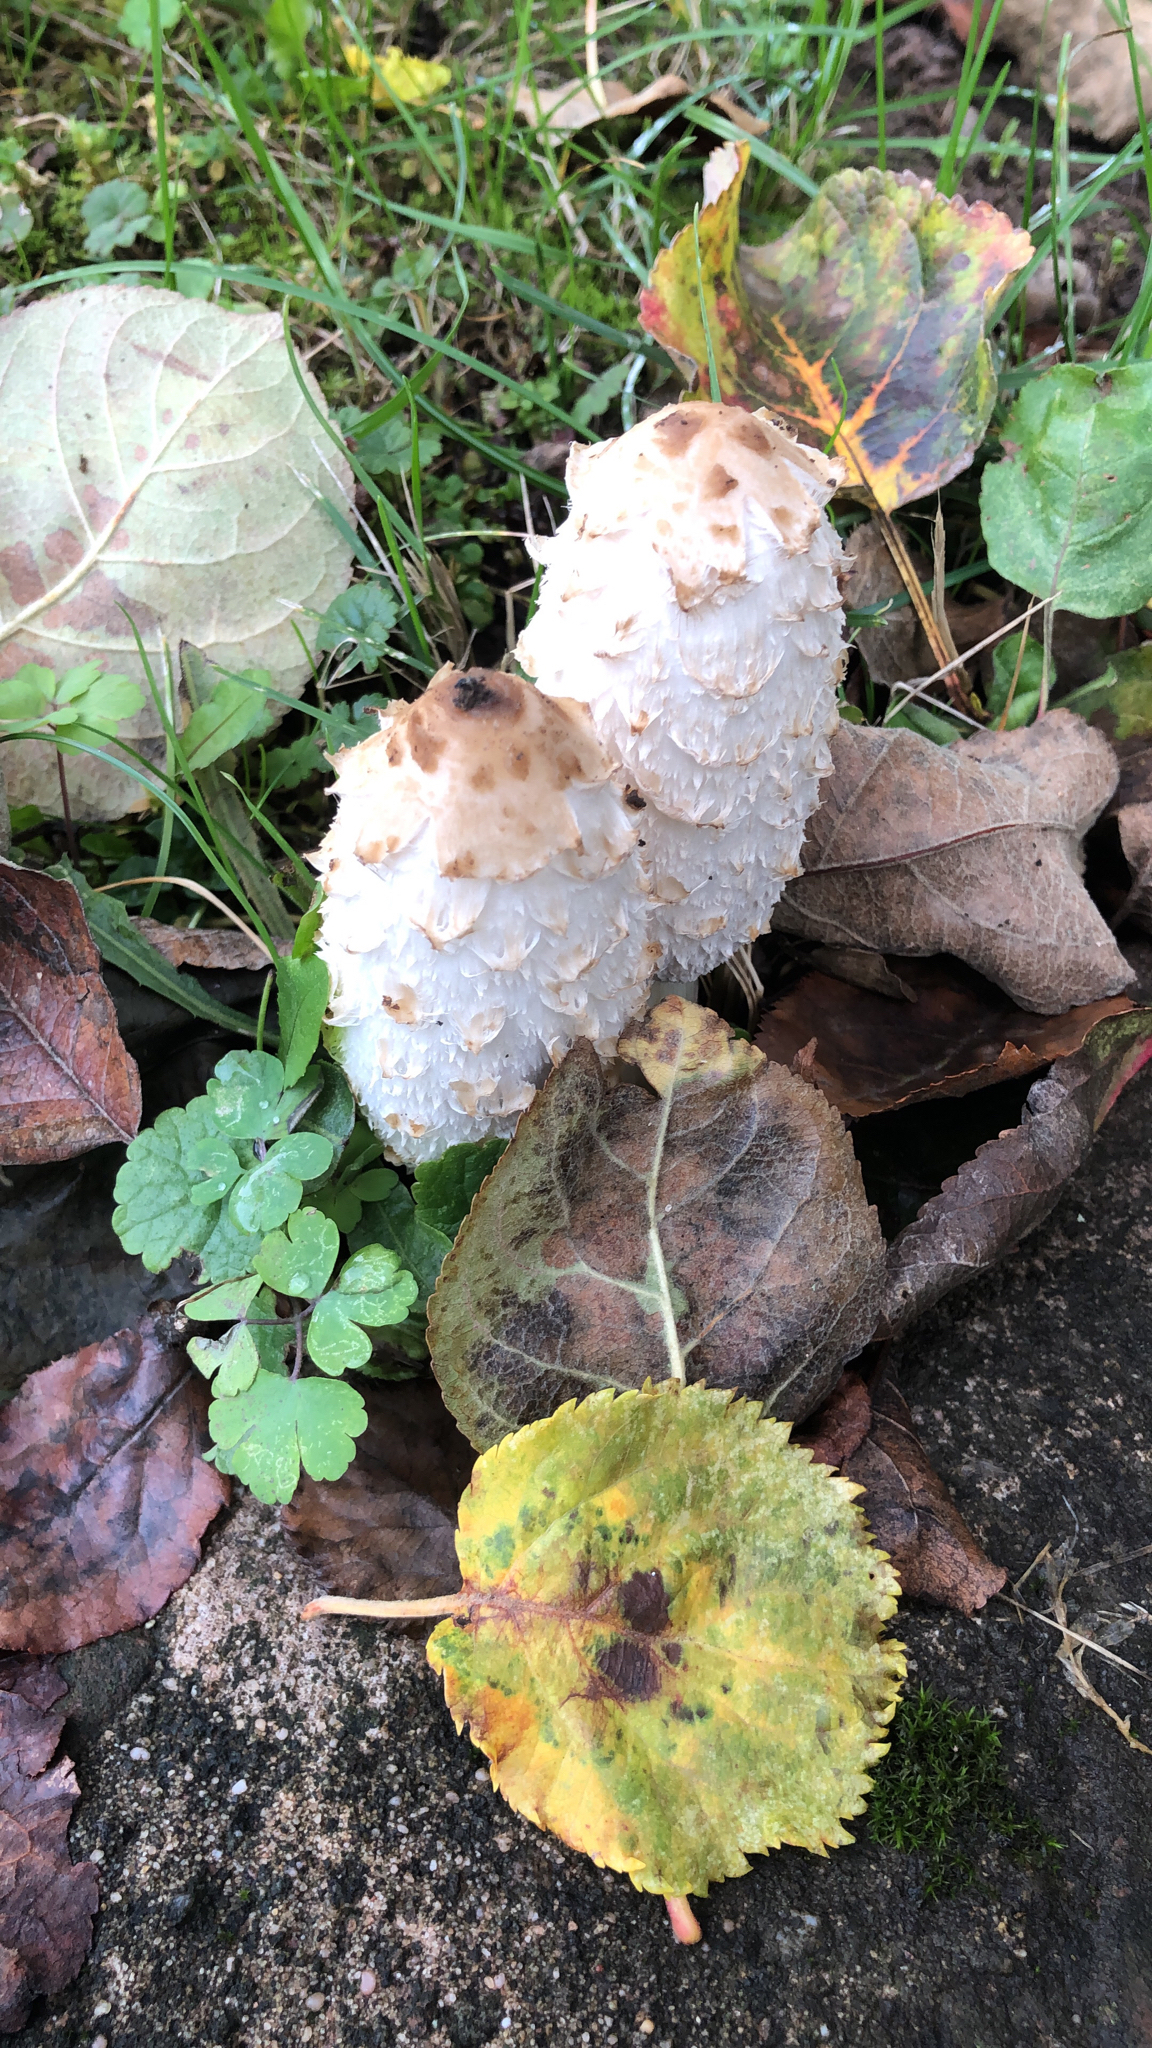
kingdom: Fungi
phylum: Basidiomycota
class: Agaricomycetes
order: Agaricales
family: Agaricaceae
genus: Coprinus
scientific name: Coprinus comatus
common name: Lawyer's wig
